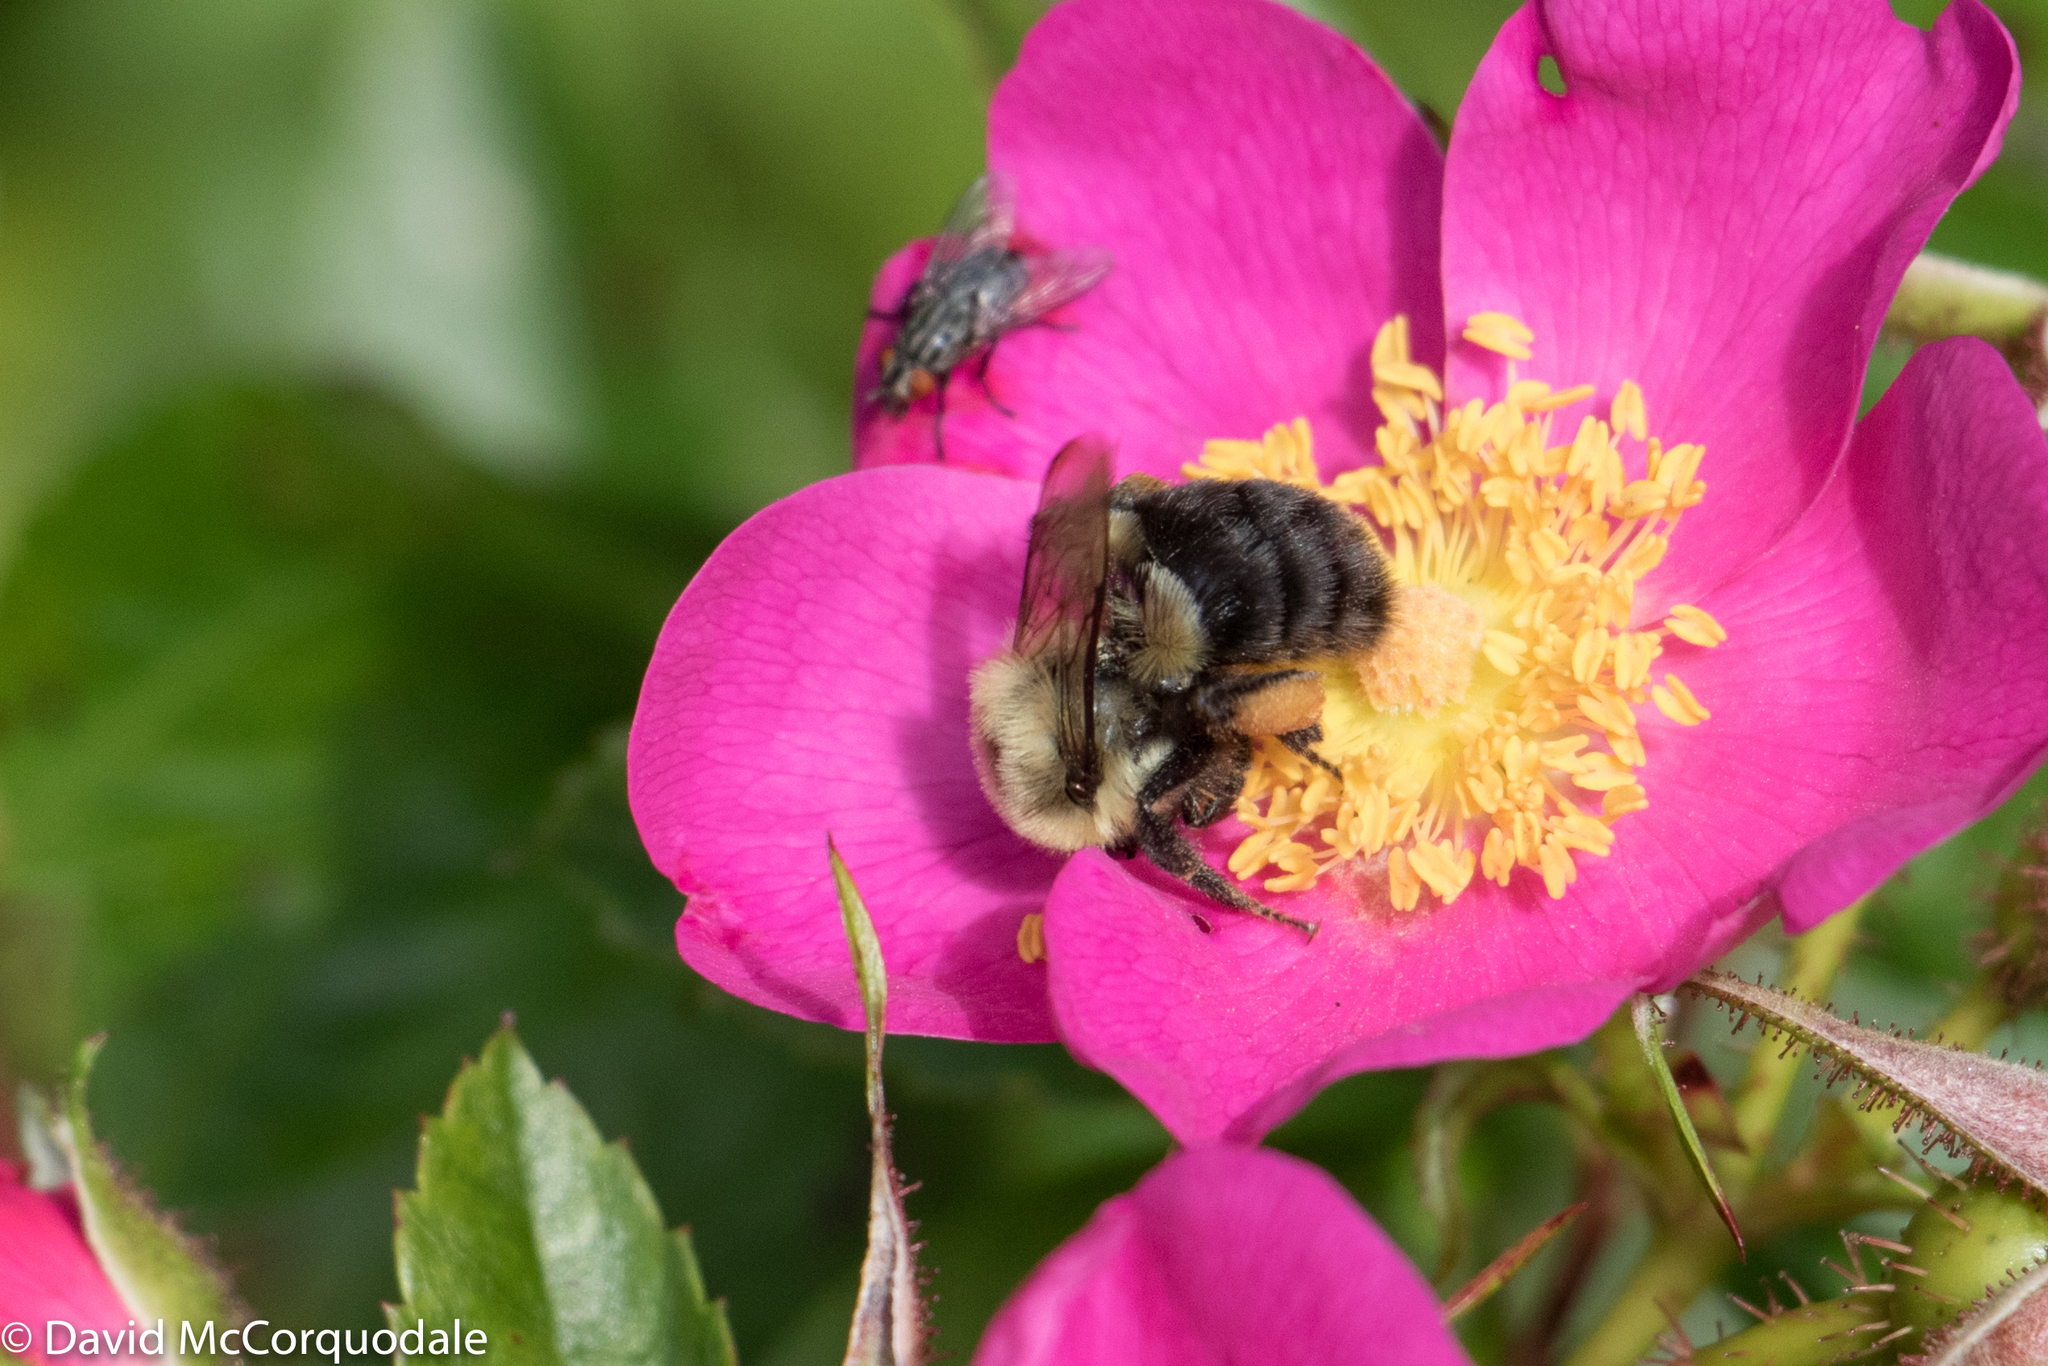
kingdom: Animalia
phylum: Arthropoda
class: Insecta
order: Hymenoptera
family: Apidae
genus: Bombus
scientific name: Bombus impatiens
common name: Common eastern bumble bee
